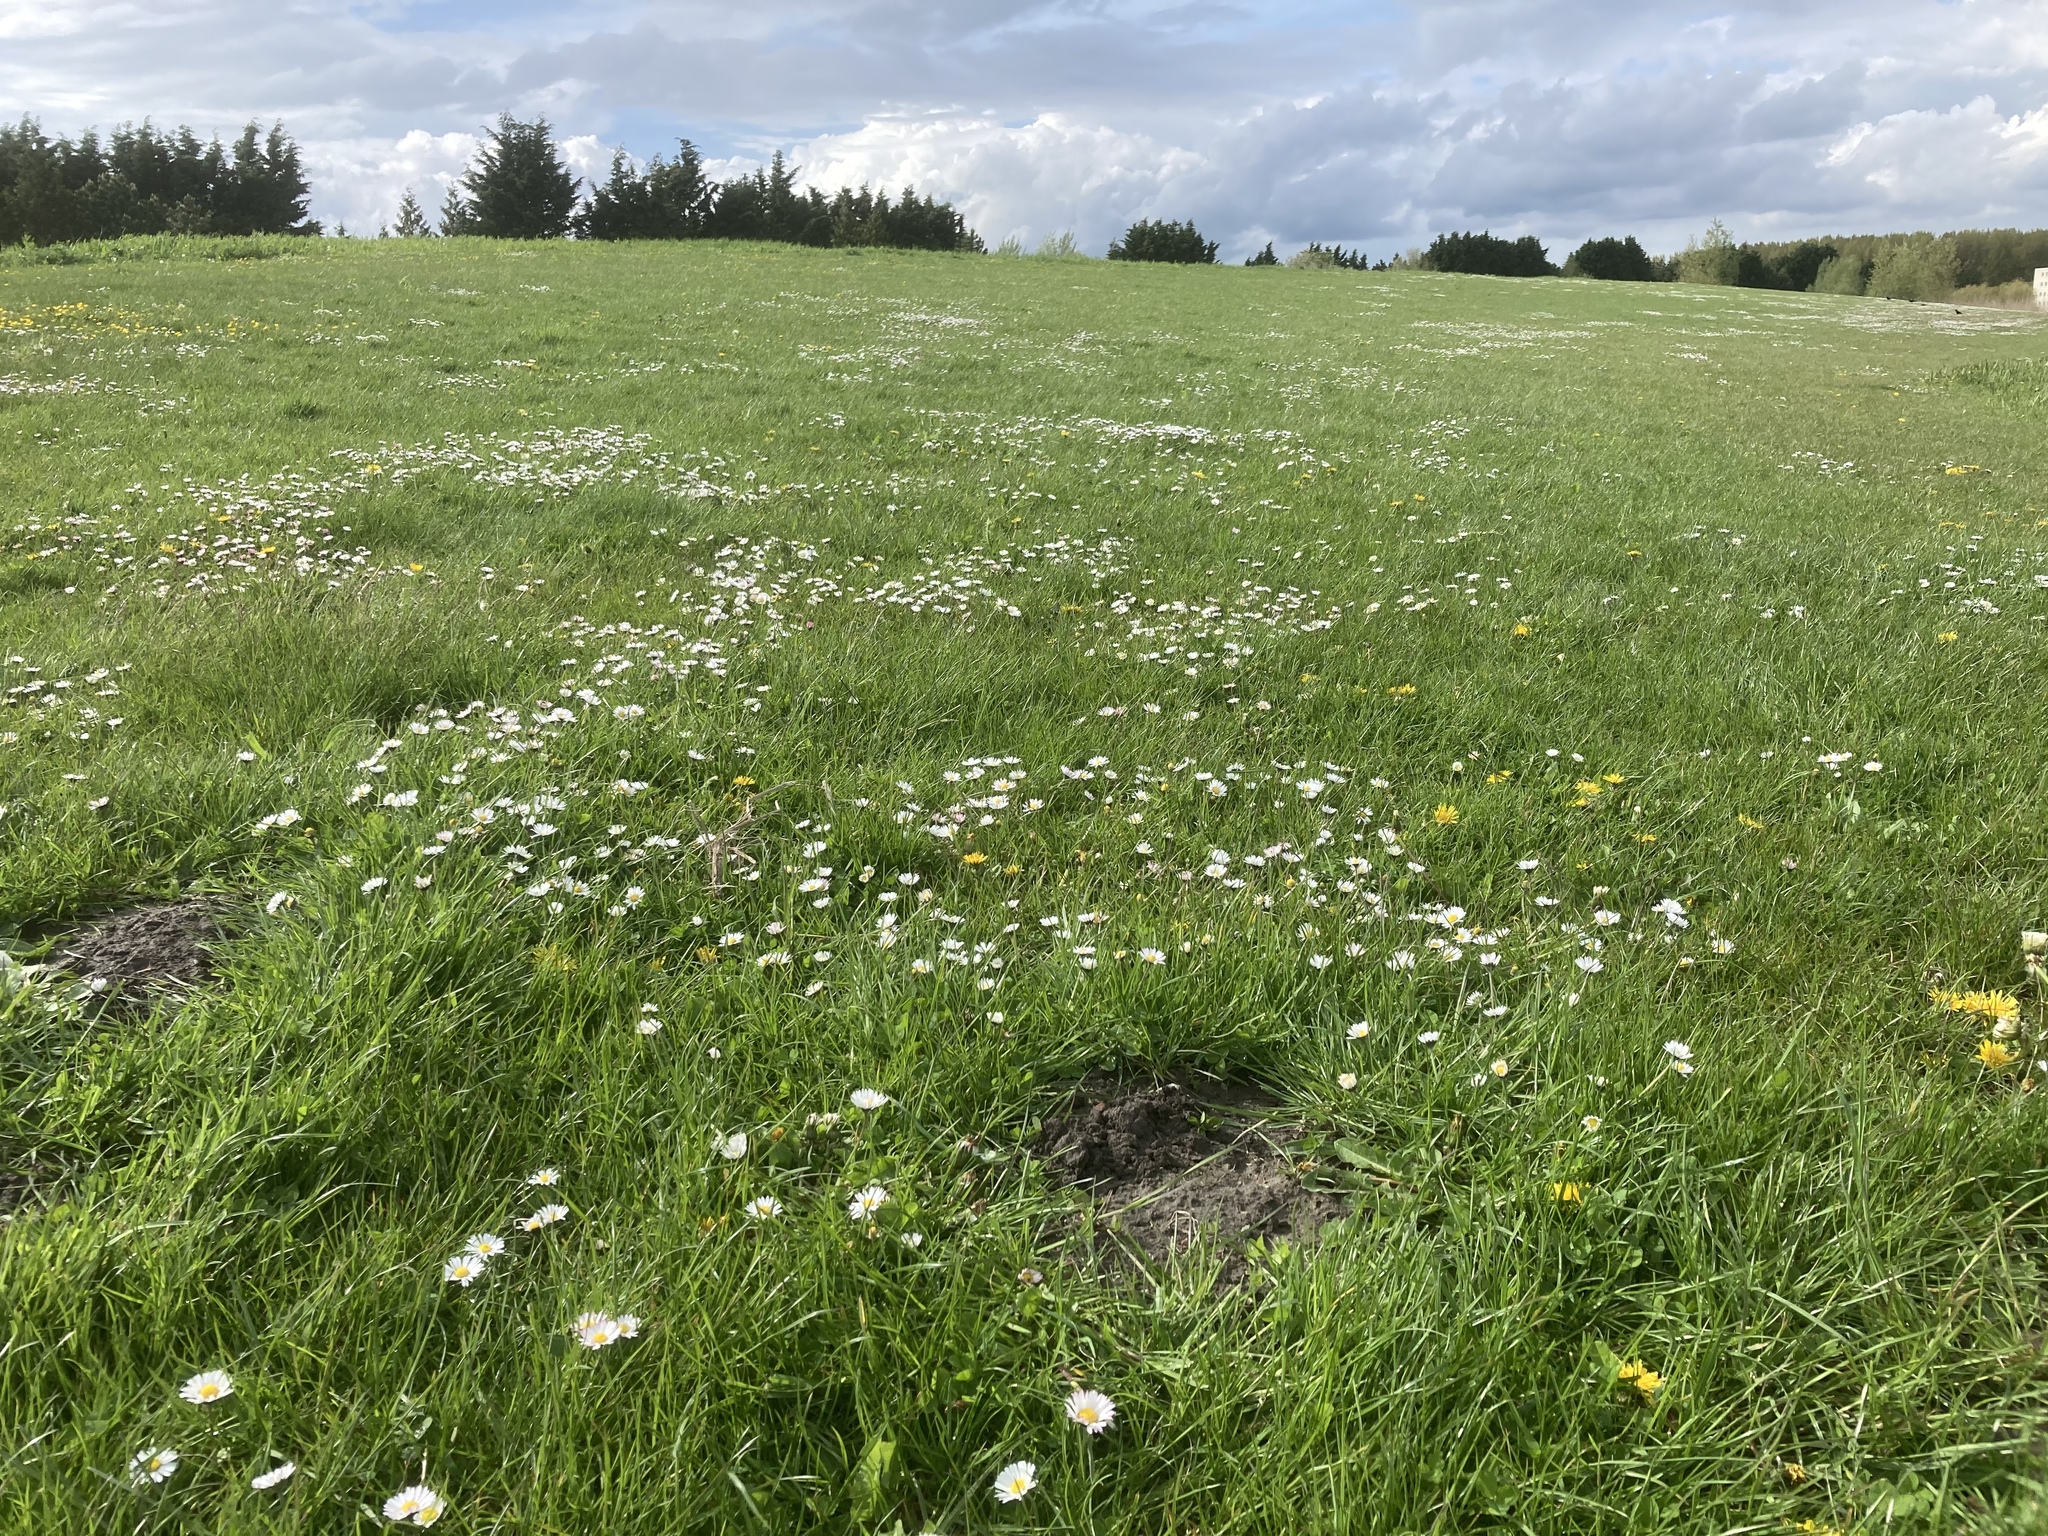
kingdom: Plantae
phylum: Tracheophyta
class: Magnoliopsida
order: Asterales
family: Asteraceae
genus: Bellis
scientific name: Bellis perennis
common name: Lawndaisy
